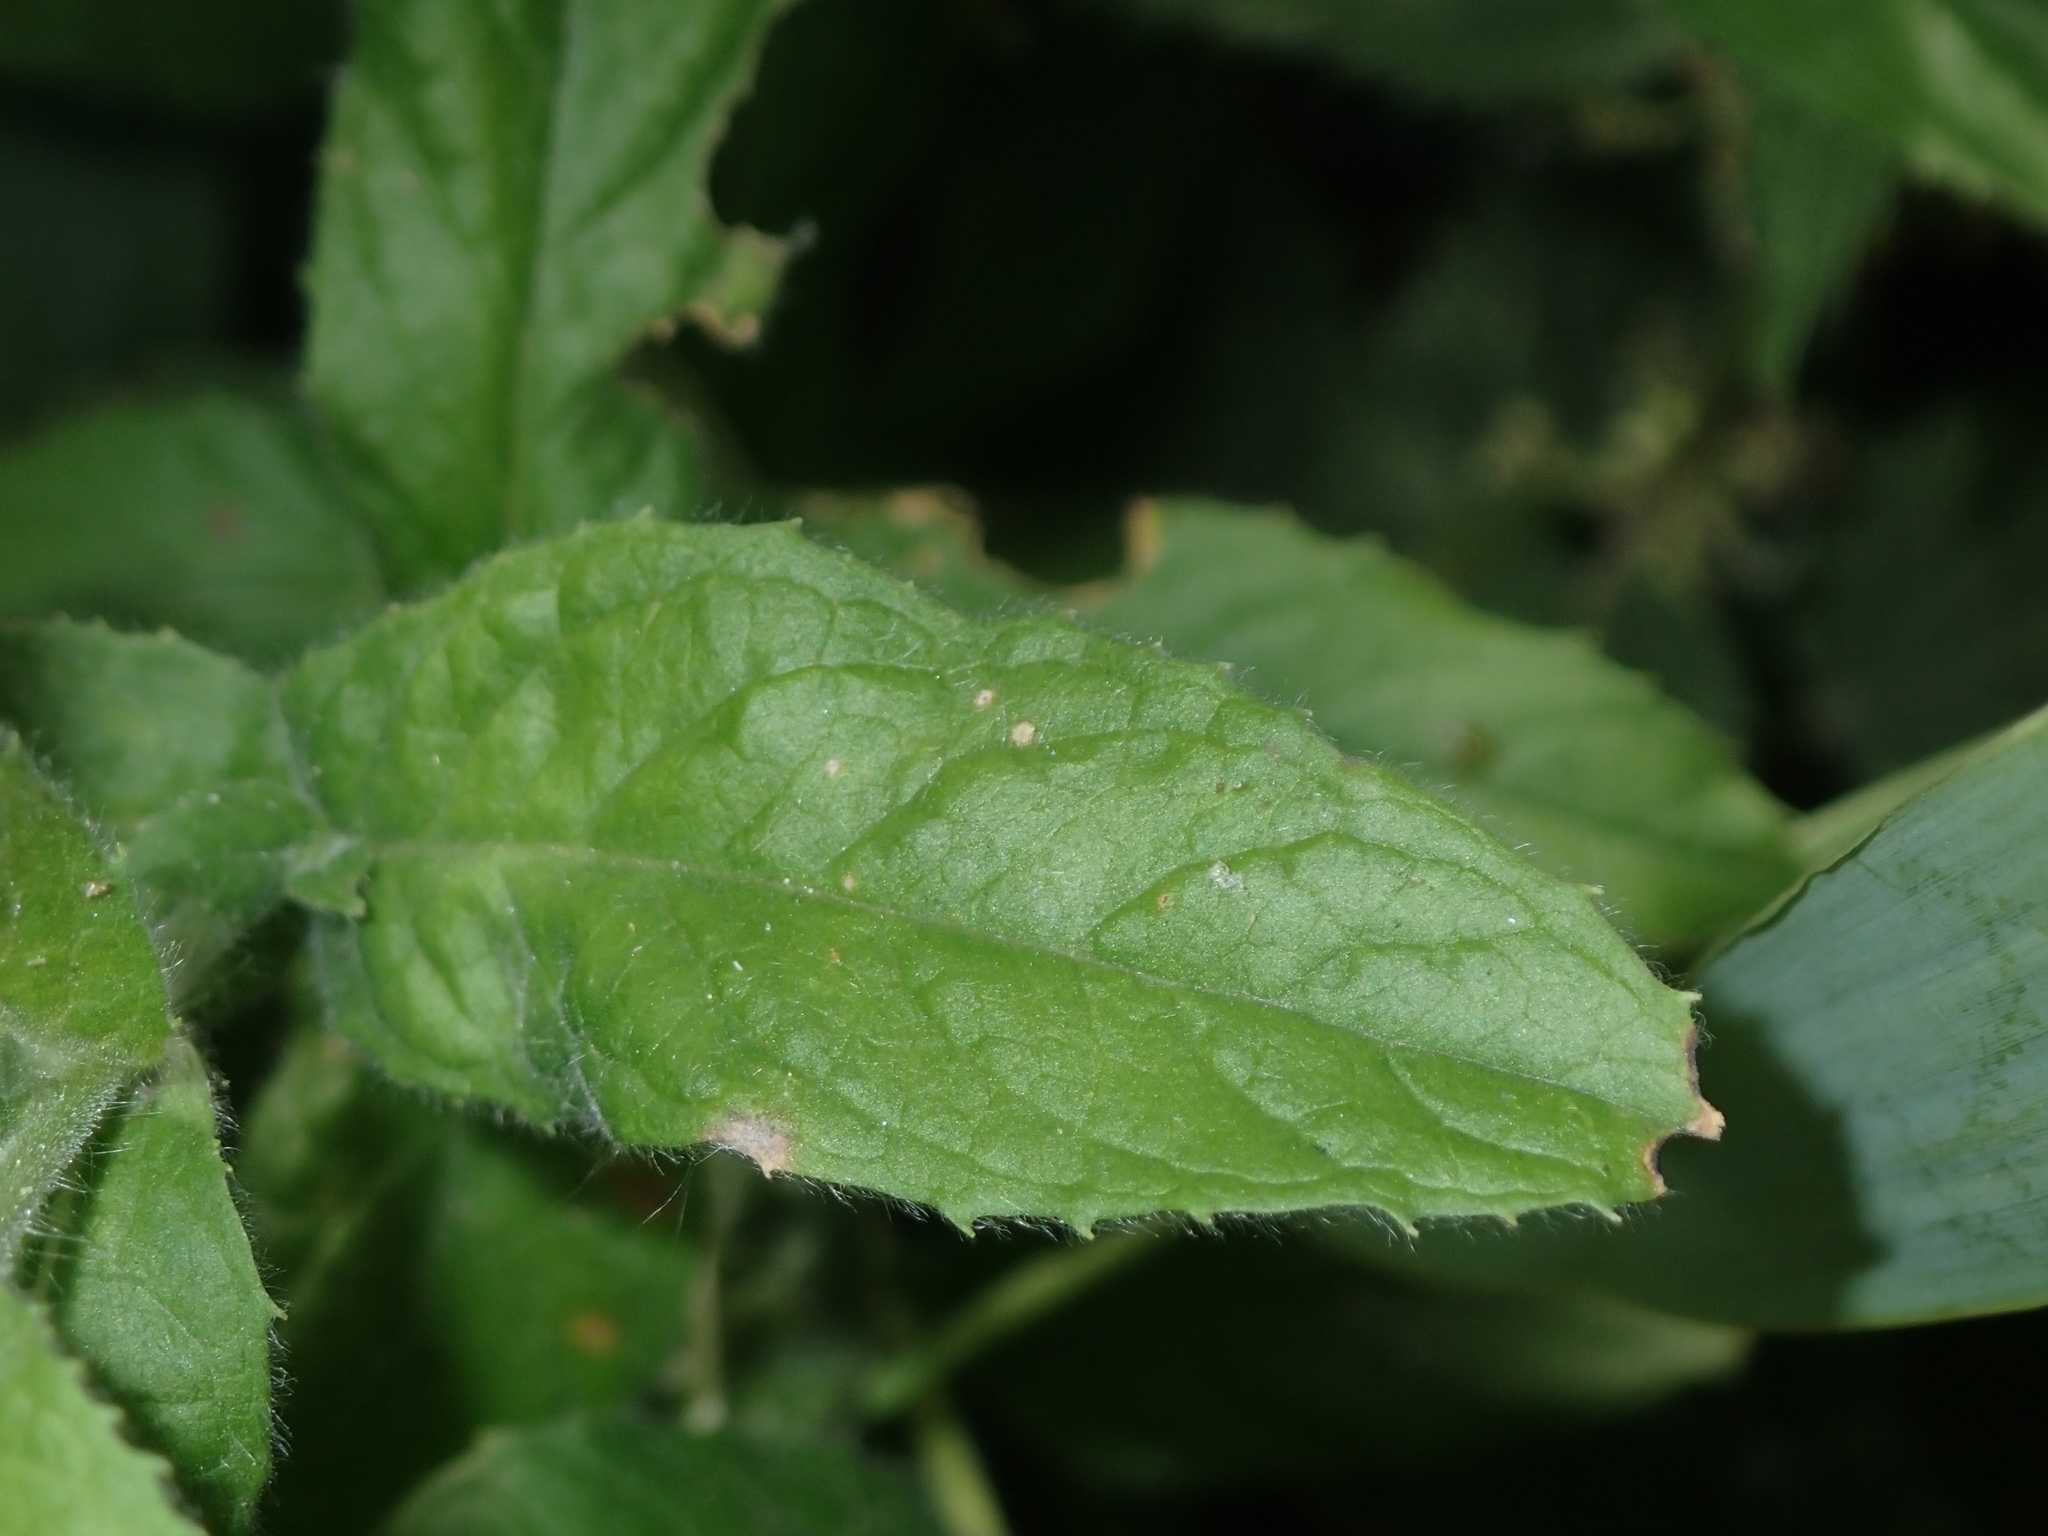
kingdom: Plantae
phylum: Tracheophyta
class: Magnoliopsida
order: Myrtales
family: Onagraceae
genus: Epilobium
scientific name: Epilobium hirsutum
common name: Great willowherb
